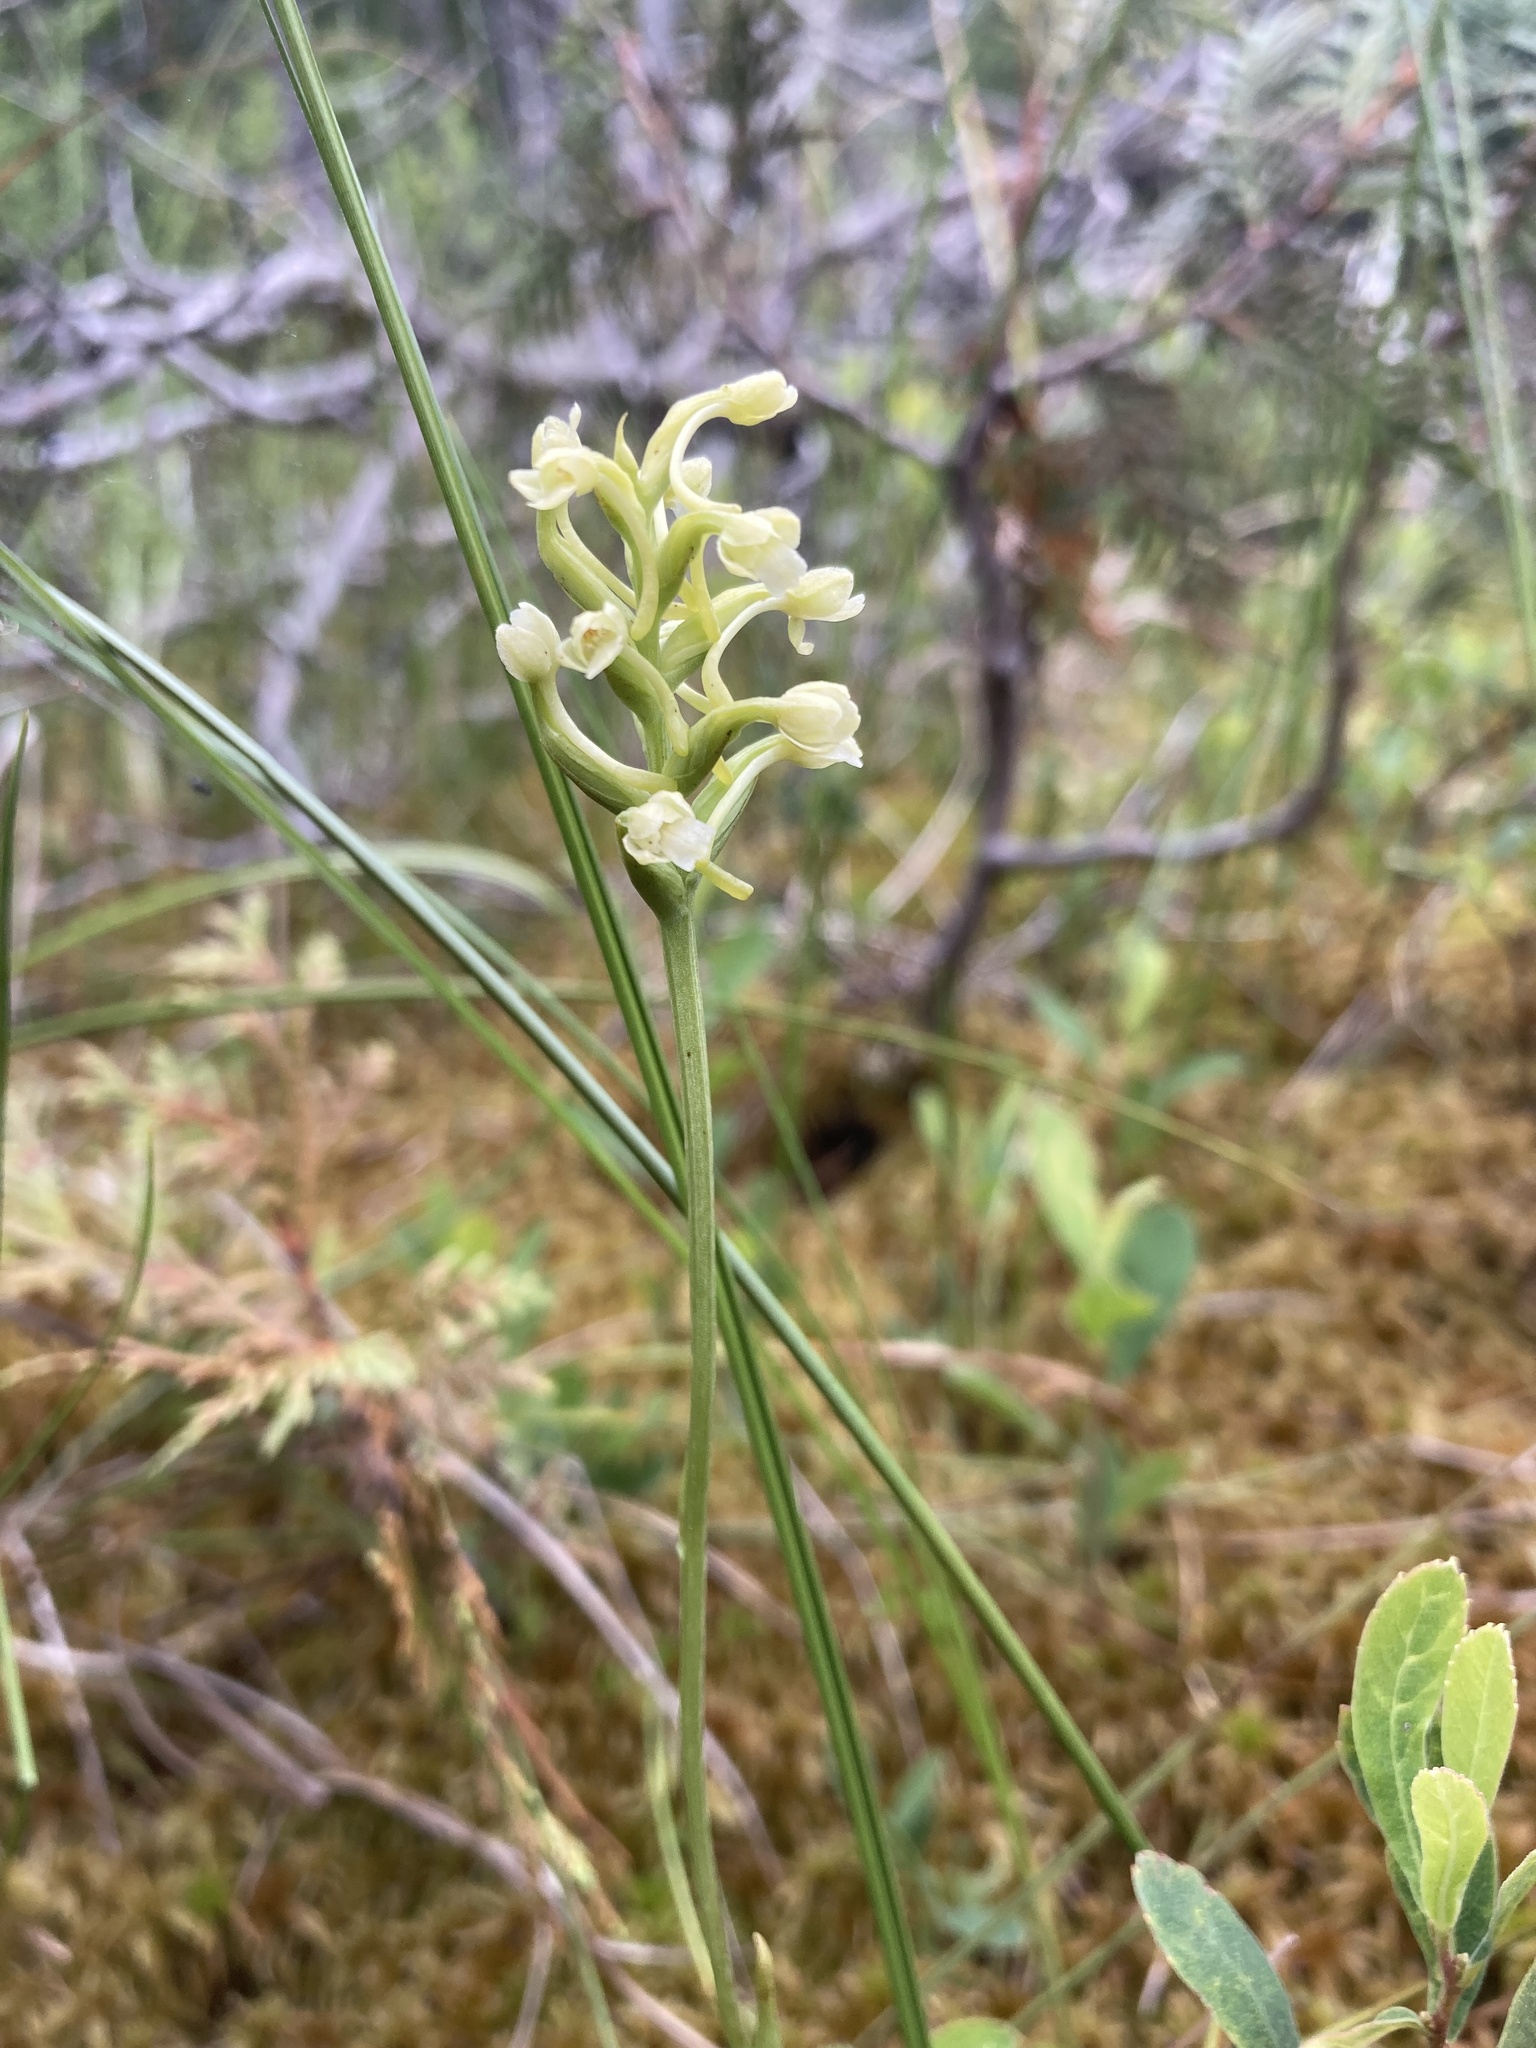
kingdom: Plantae
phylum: Tracheophyta
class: Liliopsida
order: Asparagales
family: Orchidaceae
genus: Platanthera
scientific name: Platanthera clavellata
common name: Club-spur orchid
